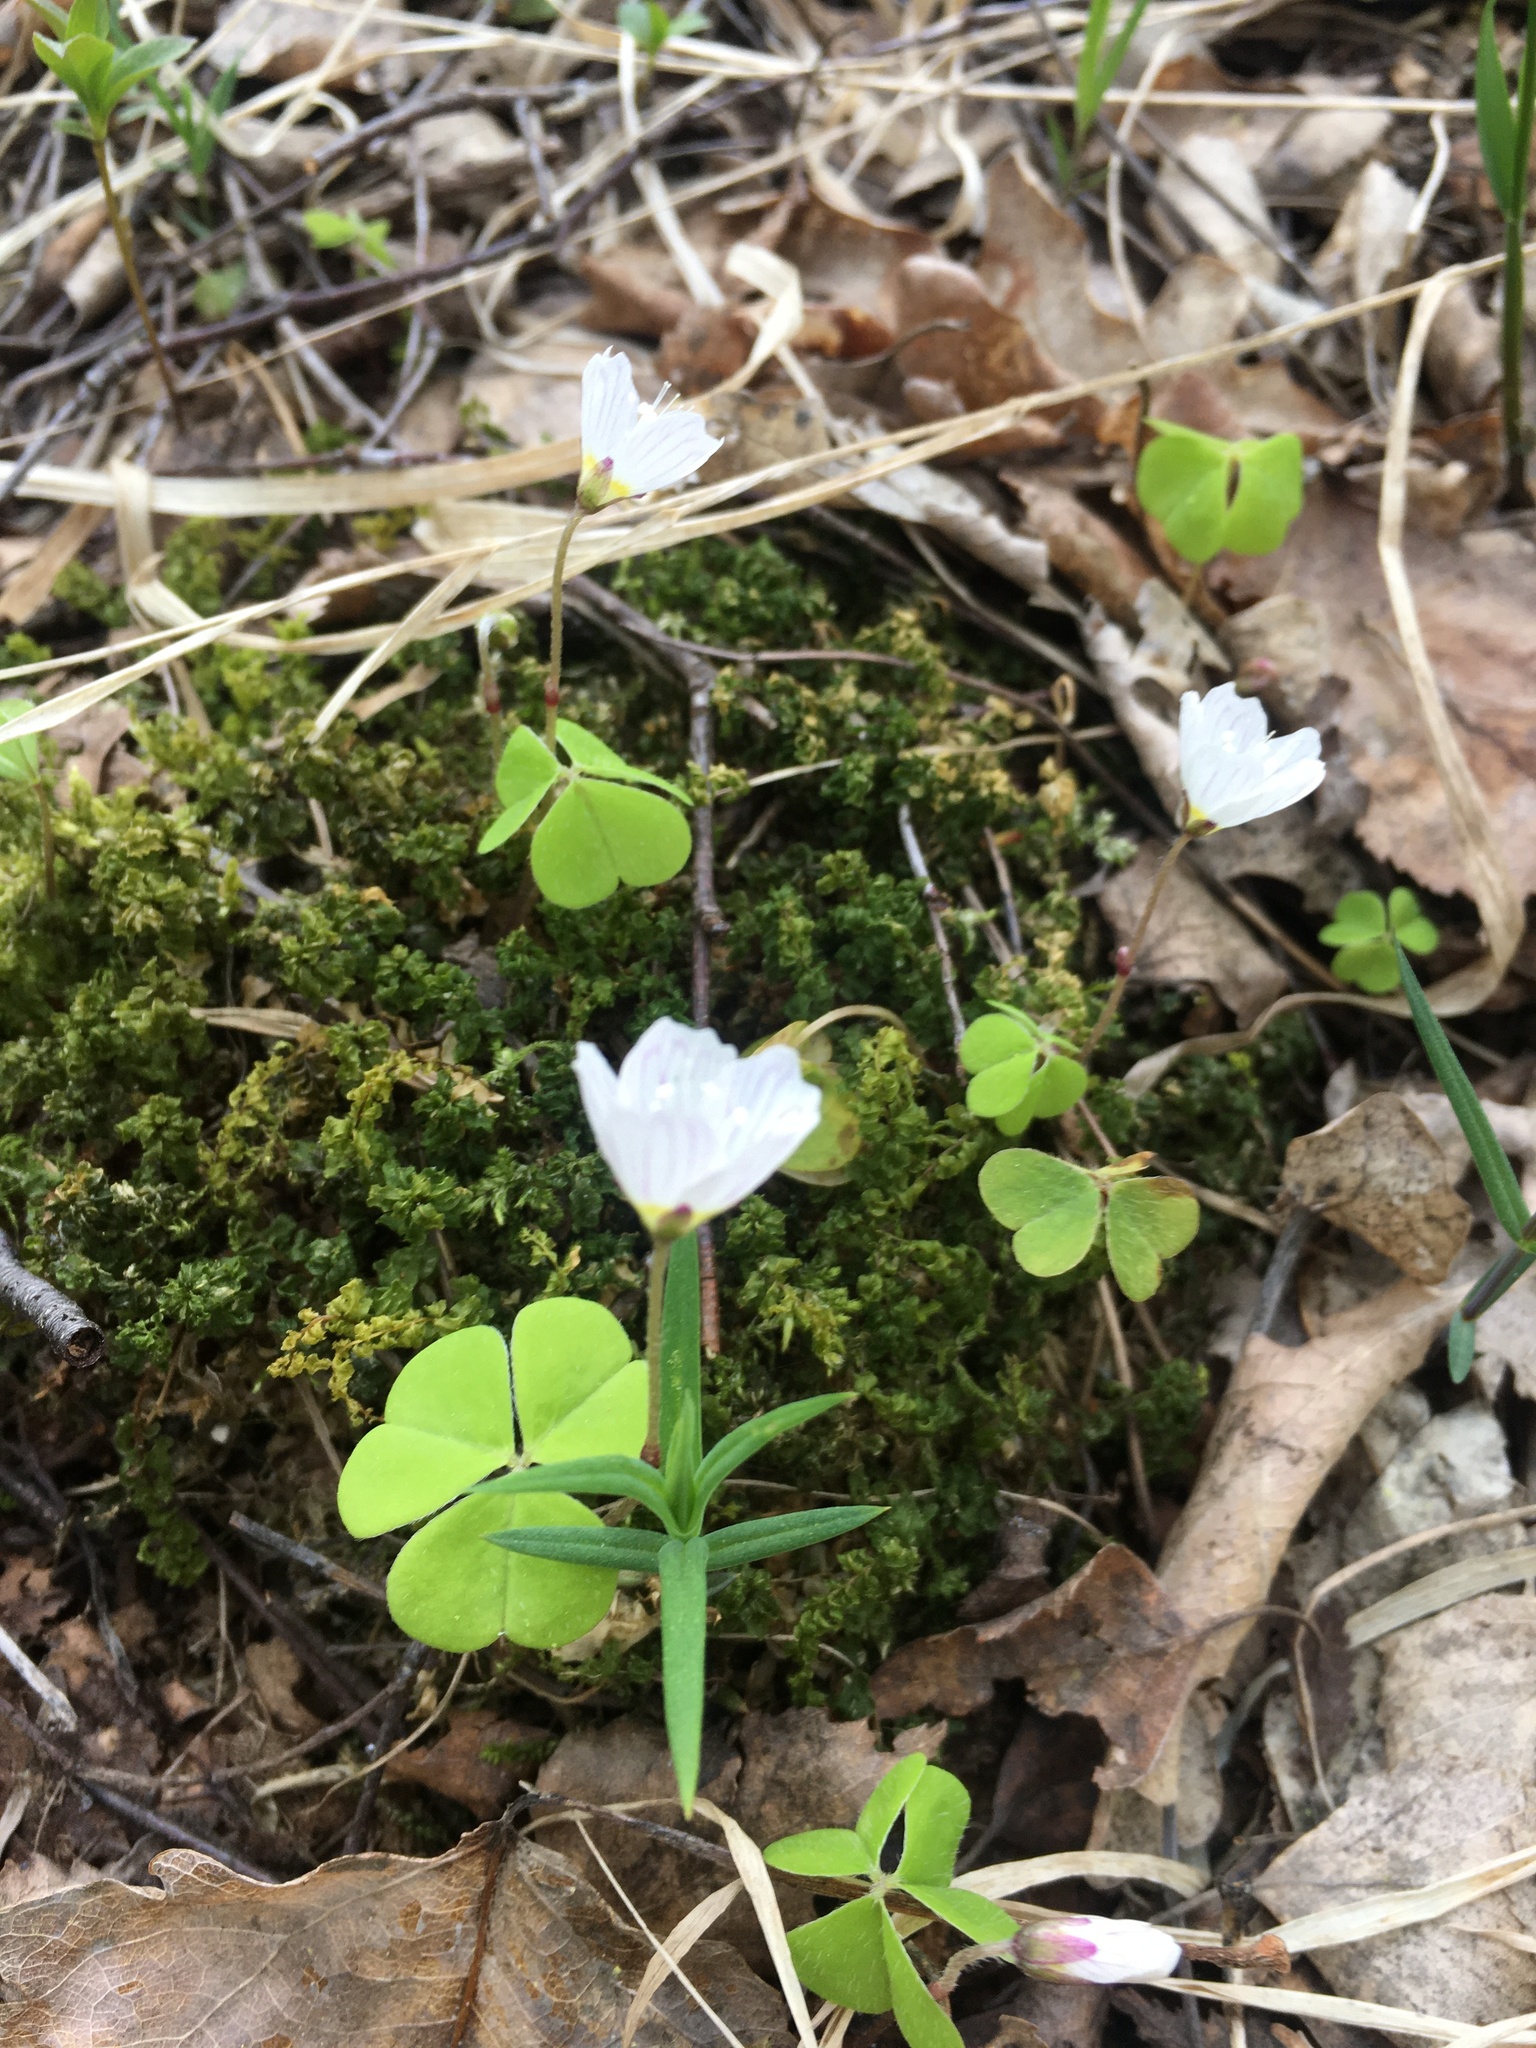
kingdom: Plantae
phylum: Tracheophyta
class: Magnoliopsida
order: Oxalidales
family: Oxalidaceae
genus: Oxalis
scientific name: Oxalis acetosella
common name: Wood-sorrel
